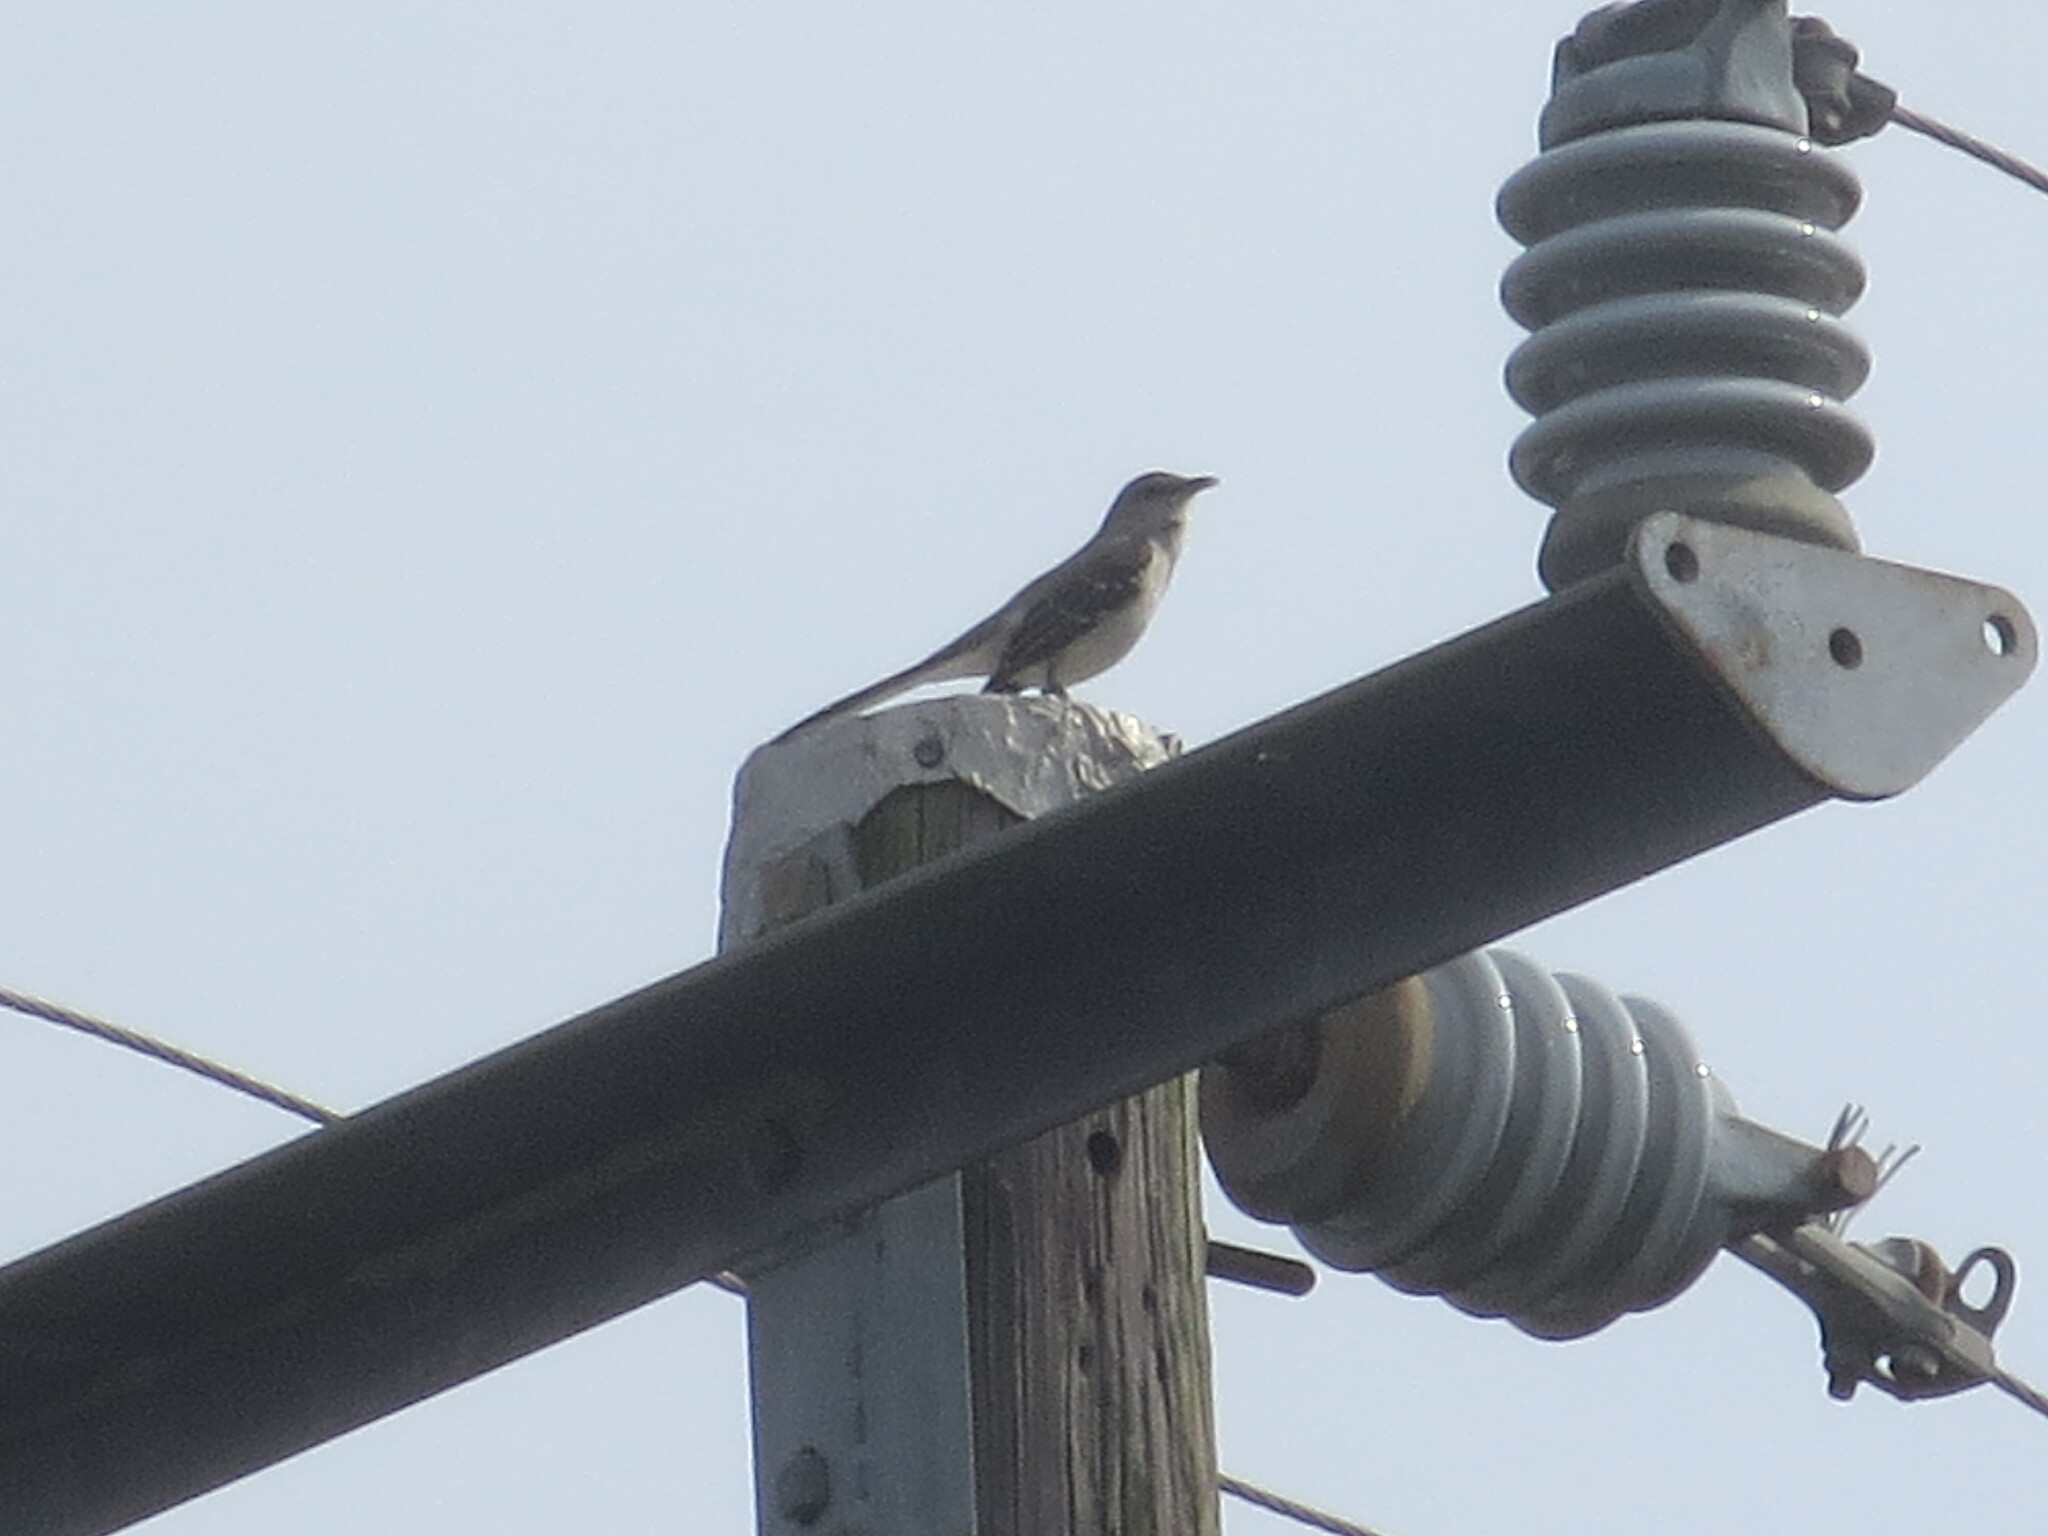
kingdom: Animalia
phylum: Chordata
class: Aves
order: Passeriformes
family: Mimidae
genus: Mimus
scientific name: Mimus polyglottos
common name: Northern mockingbird
